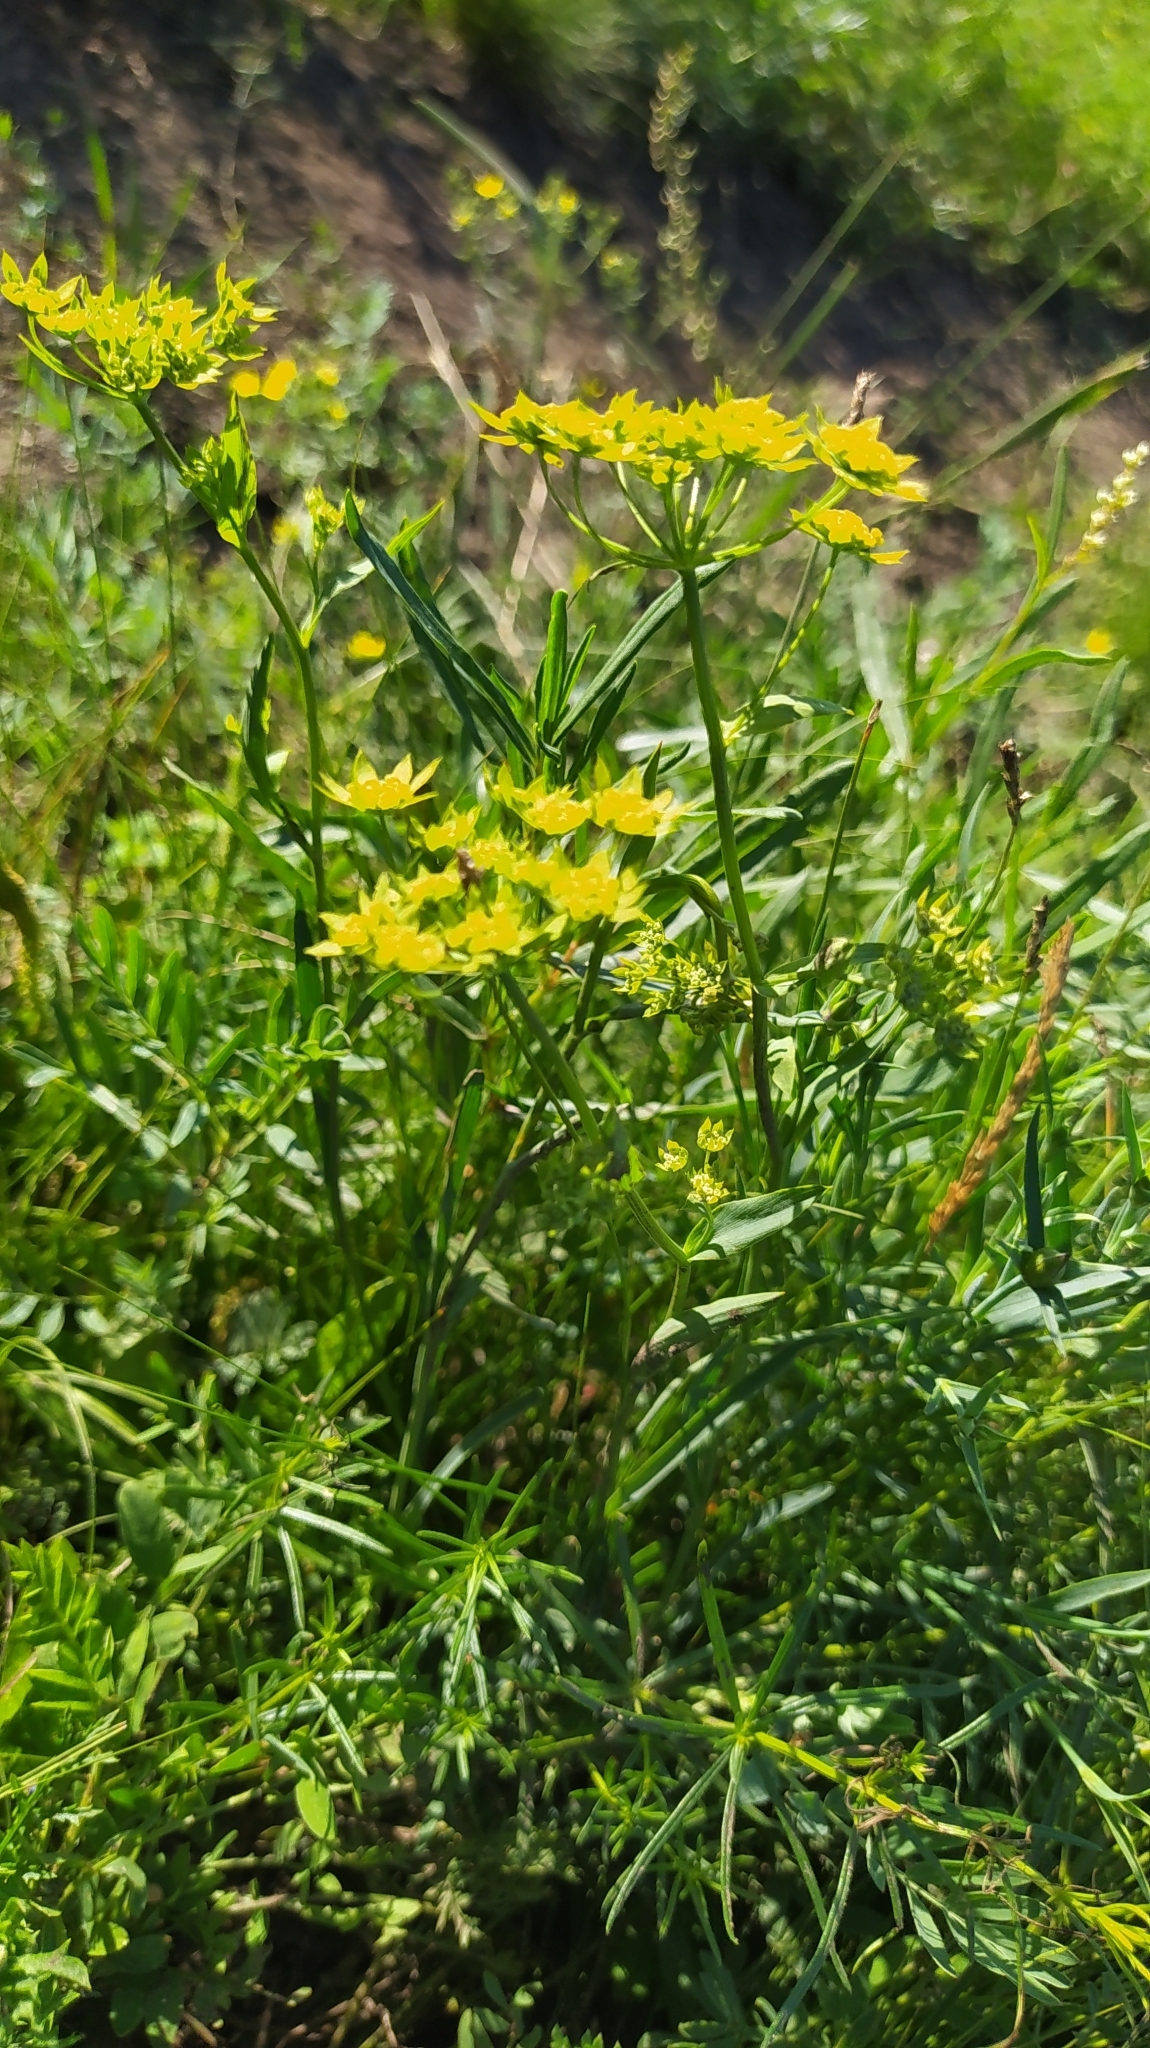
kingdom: Plantae
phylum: Tracheophyta
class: Magnoliopsida
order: Apiales
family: Apiaceae
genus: Bupleurum
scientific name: Bupleurum sibiricum
